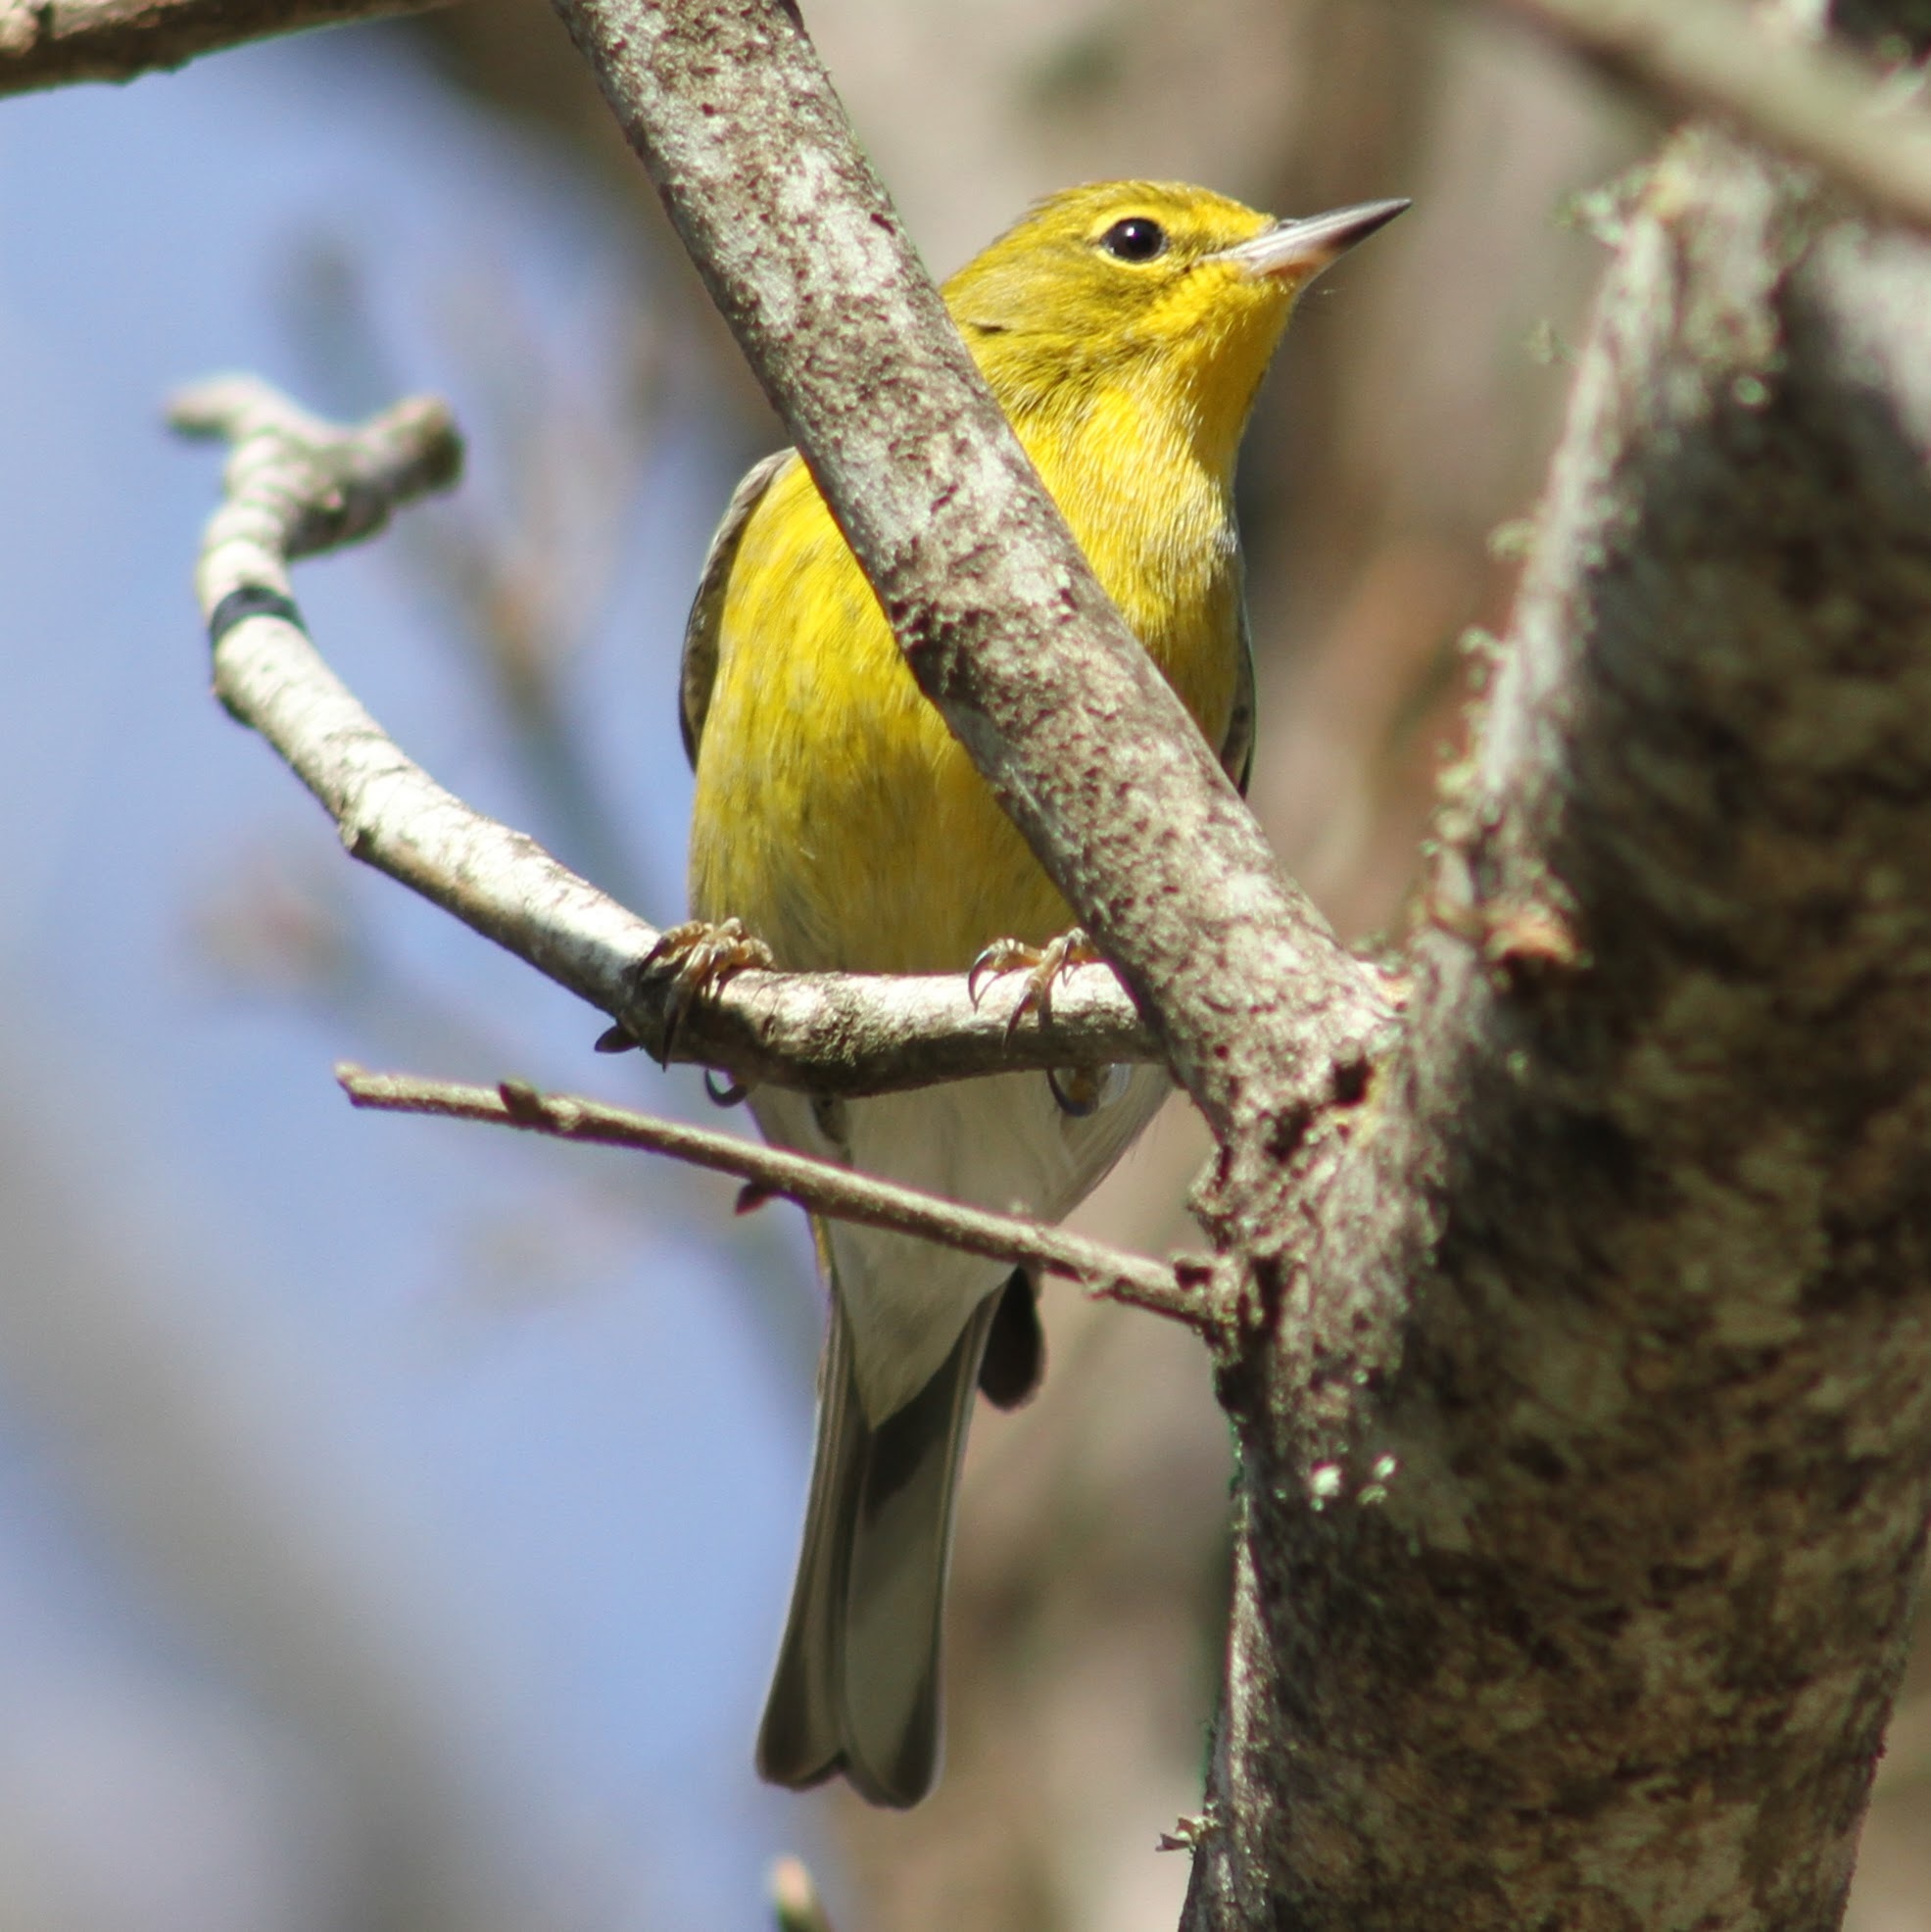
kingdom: Animalia
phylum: Chordata
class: Aves
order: Passeriformes
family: Parulidae
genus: Setophaga
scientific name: Setophaga pinus
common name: Pine warbler
